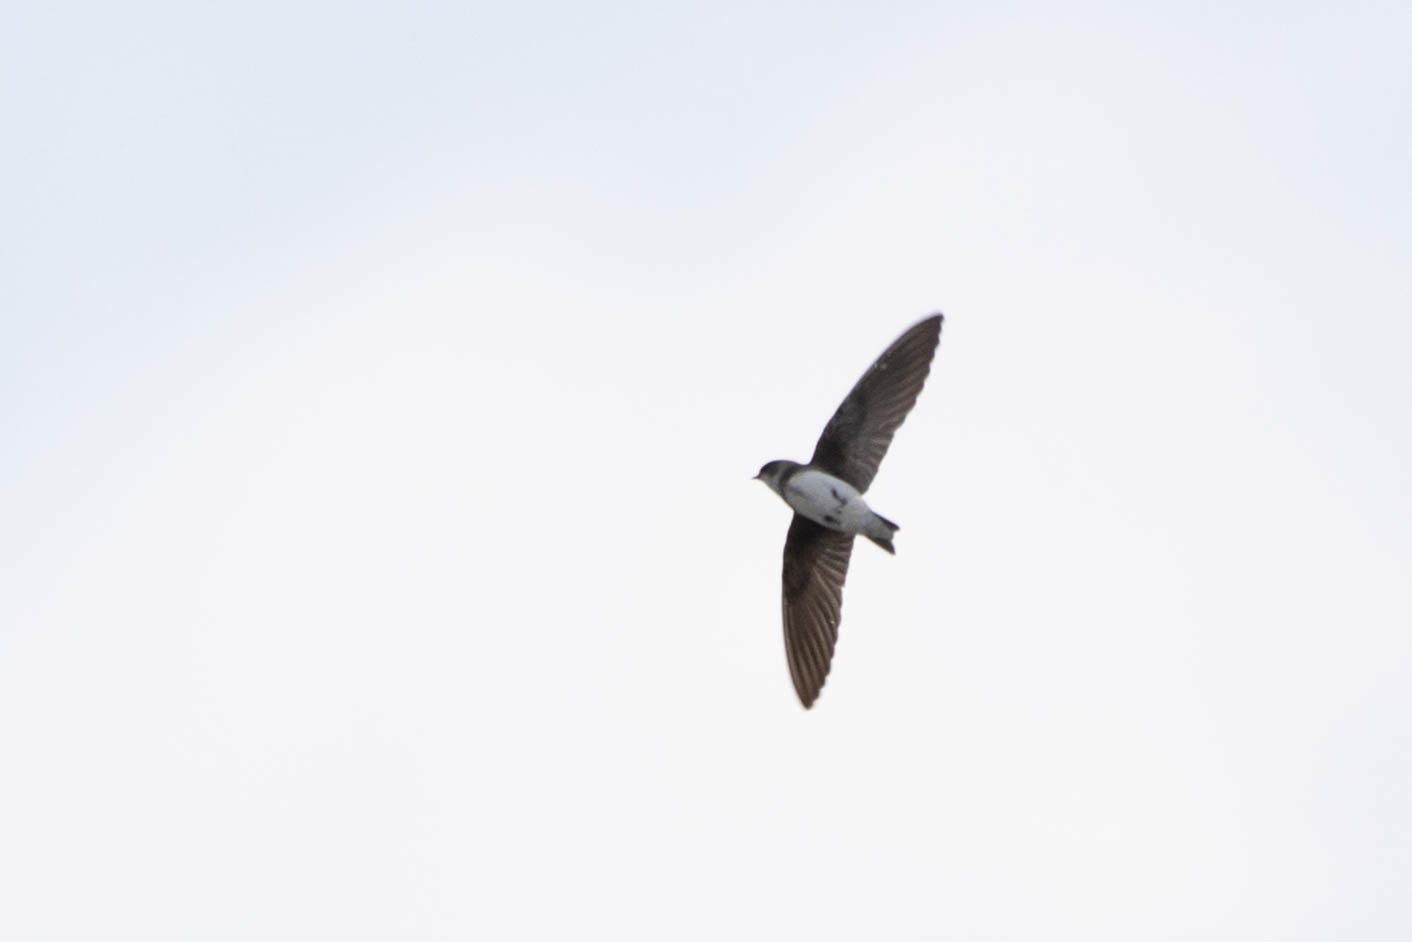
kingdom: Animalia
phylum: Chordata
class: Aves
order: Passeriformes
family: Hirundinidae
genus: Riparia
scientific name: Riparia riparia
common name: Sand martin
